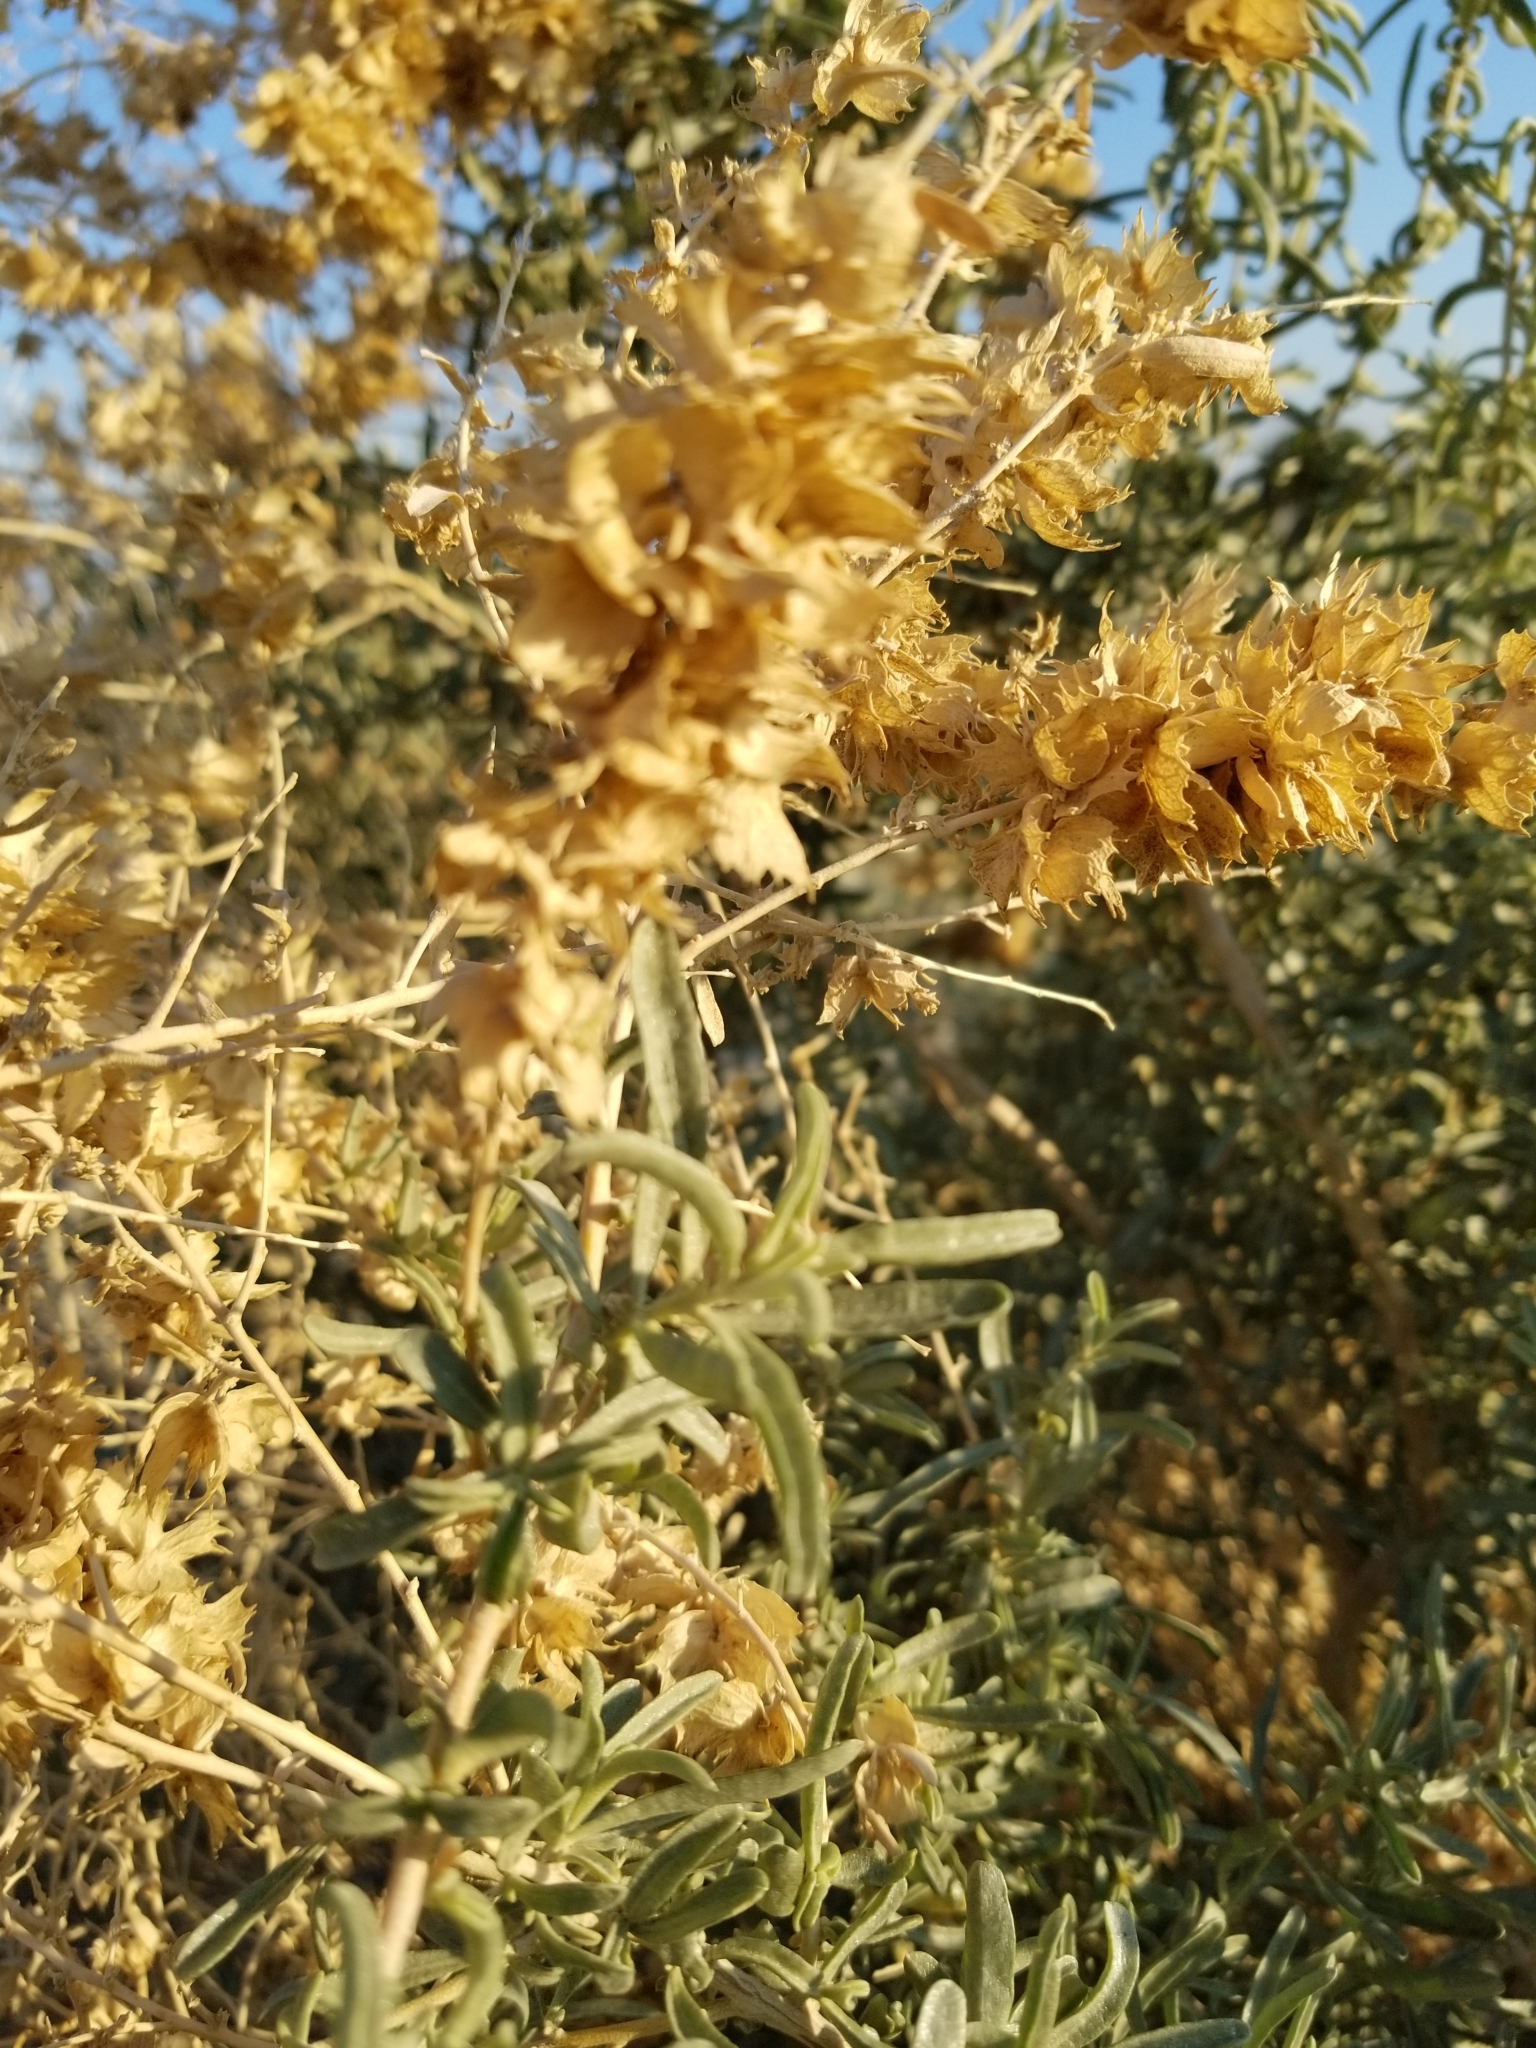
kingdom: Plantae
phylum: Tracheophyta
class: Magnoliopsida
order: Caryophyllales
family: Amaranthaceae
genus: Atriplex
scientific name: Atriplex canescens
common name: Four-wing saltbush
